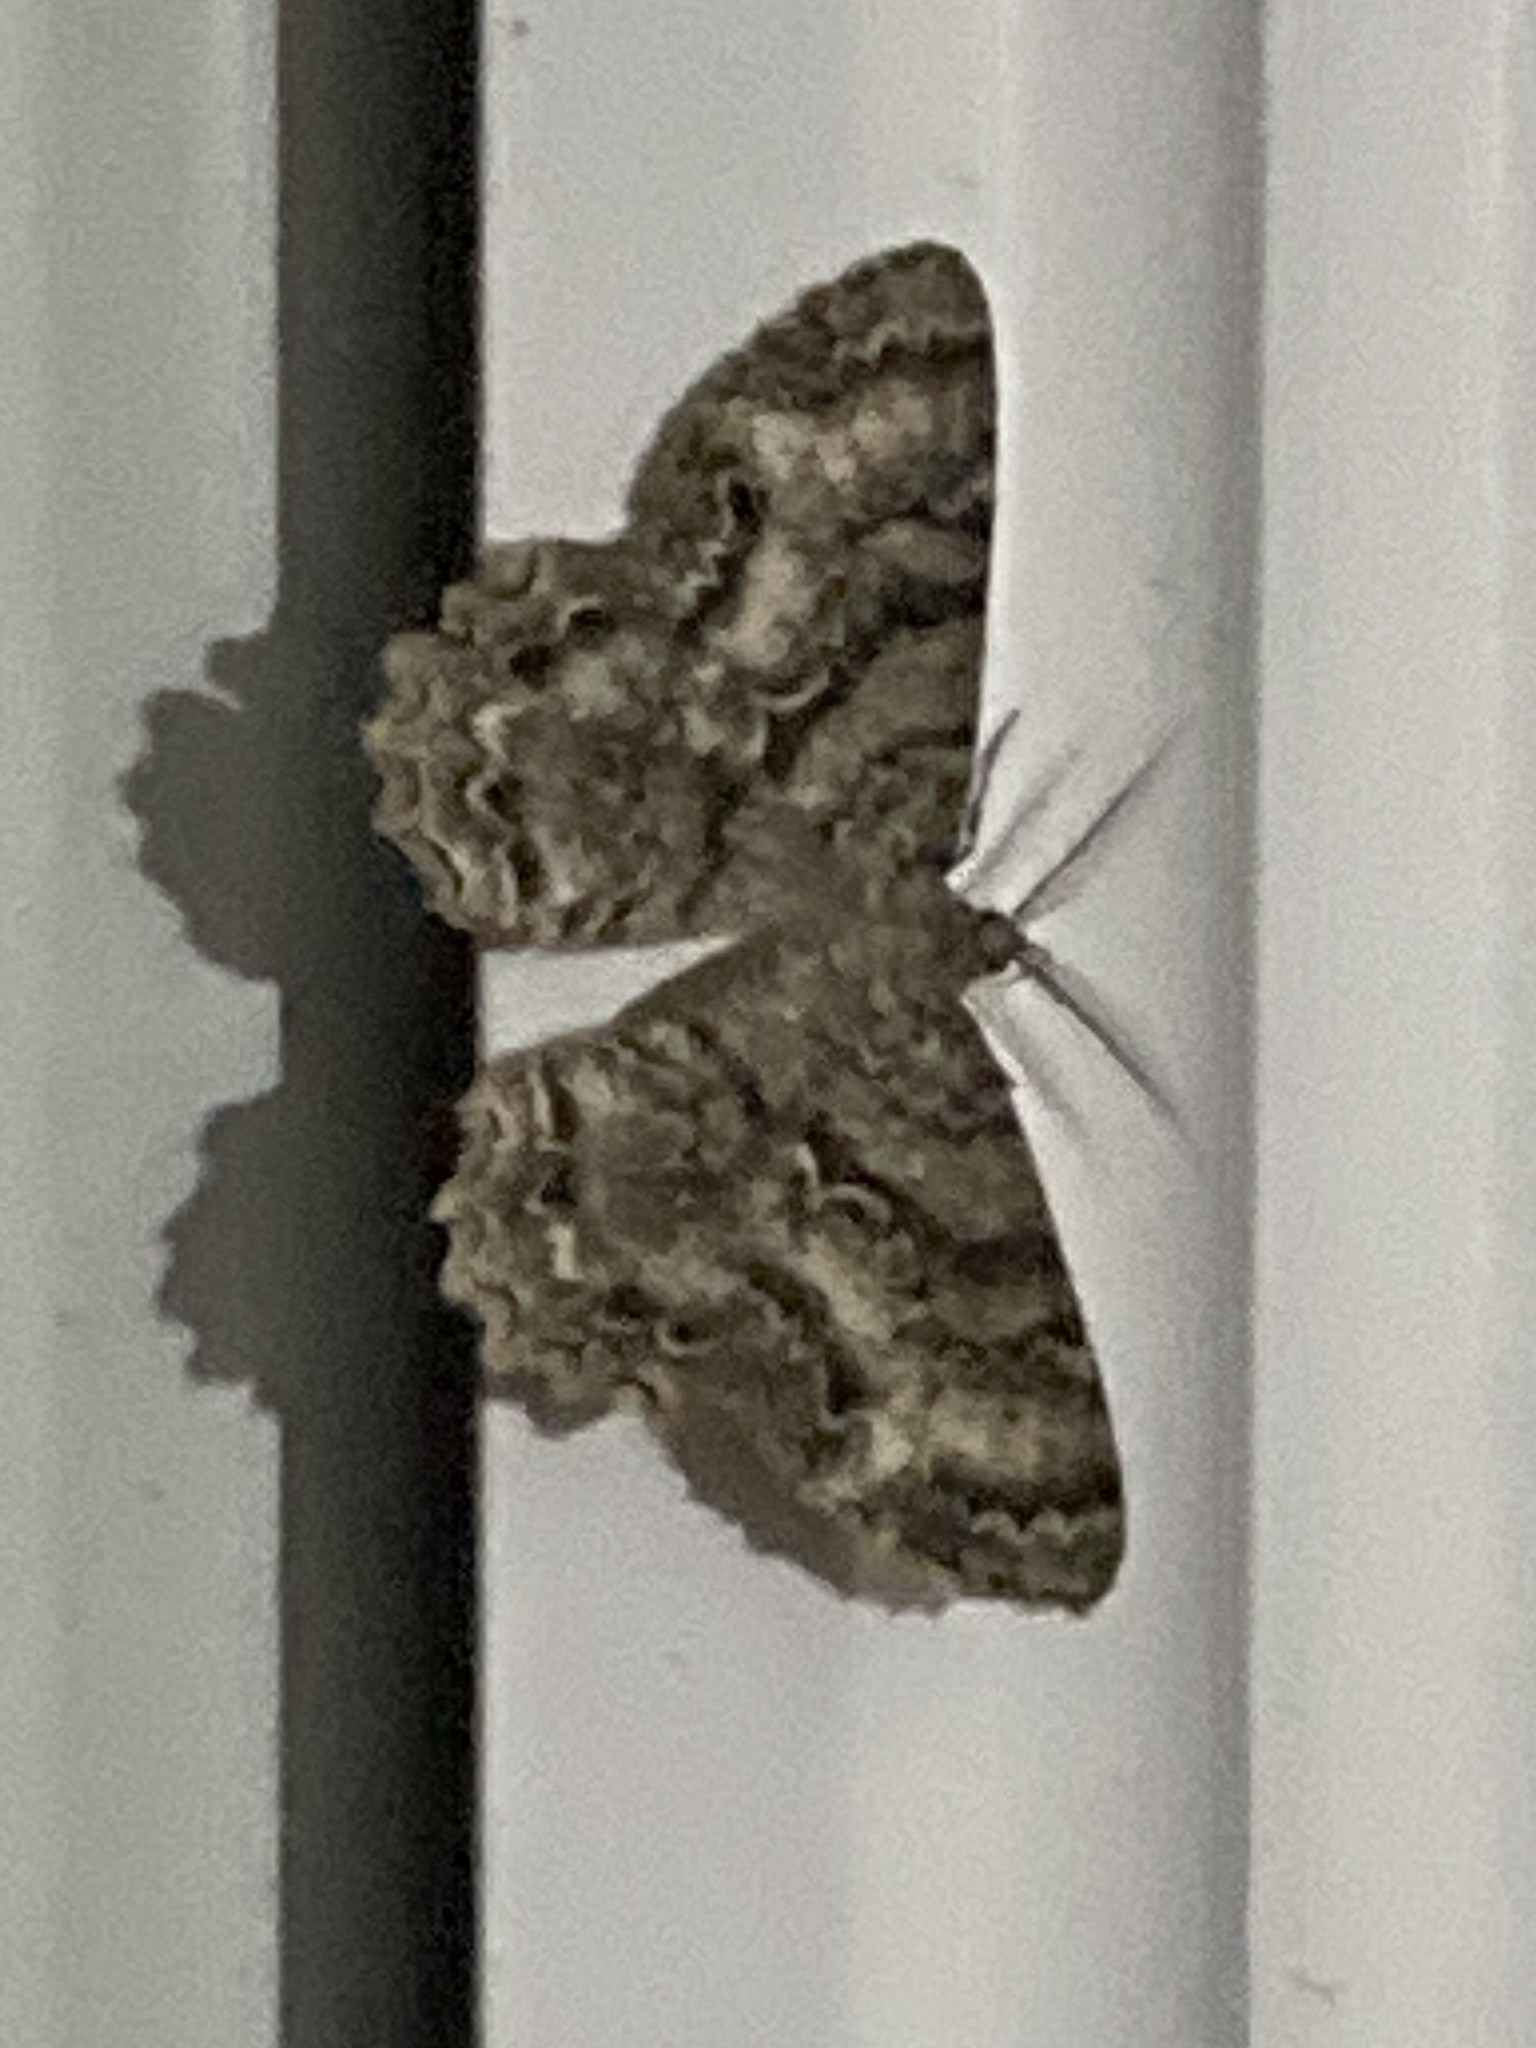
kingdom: Animalia
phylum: Arthropoda
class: Insecta
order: Lepidoptera
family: Geometridae
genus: Epimecis
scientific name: Epimecis hortaria
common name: Tulip-tree beauty
